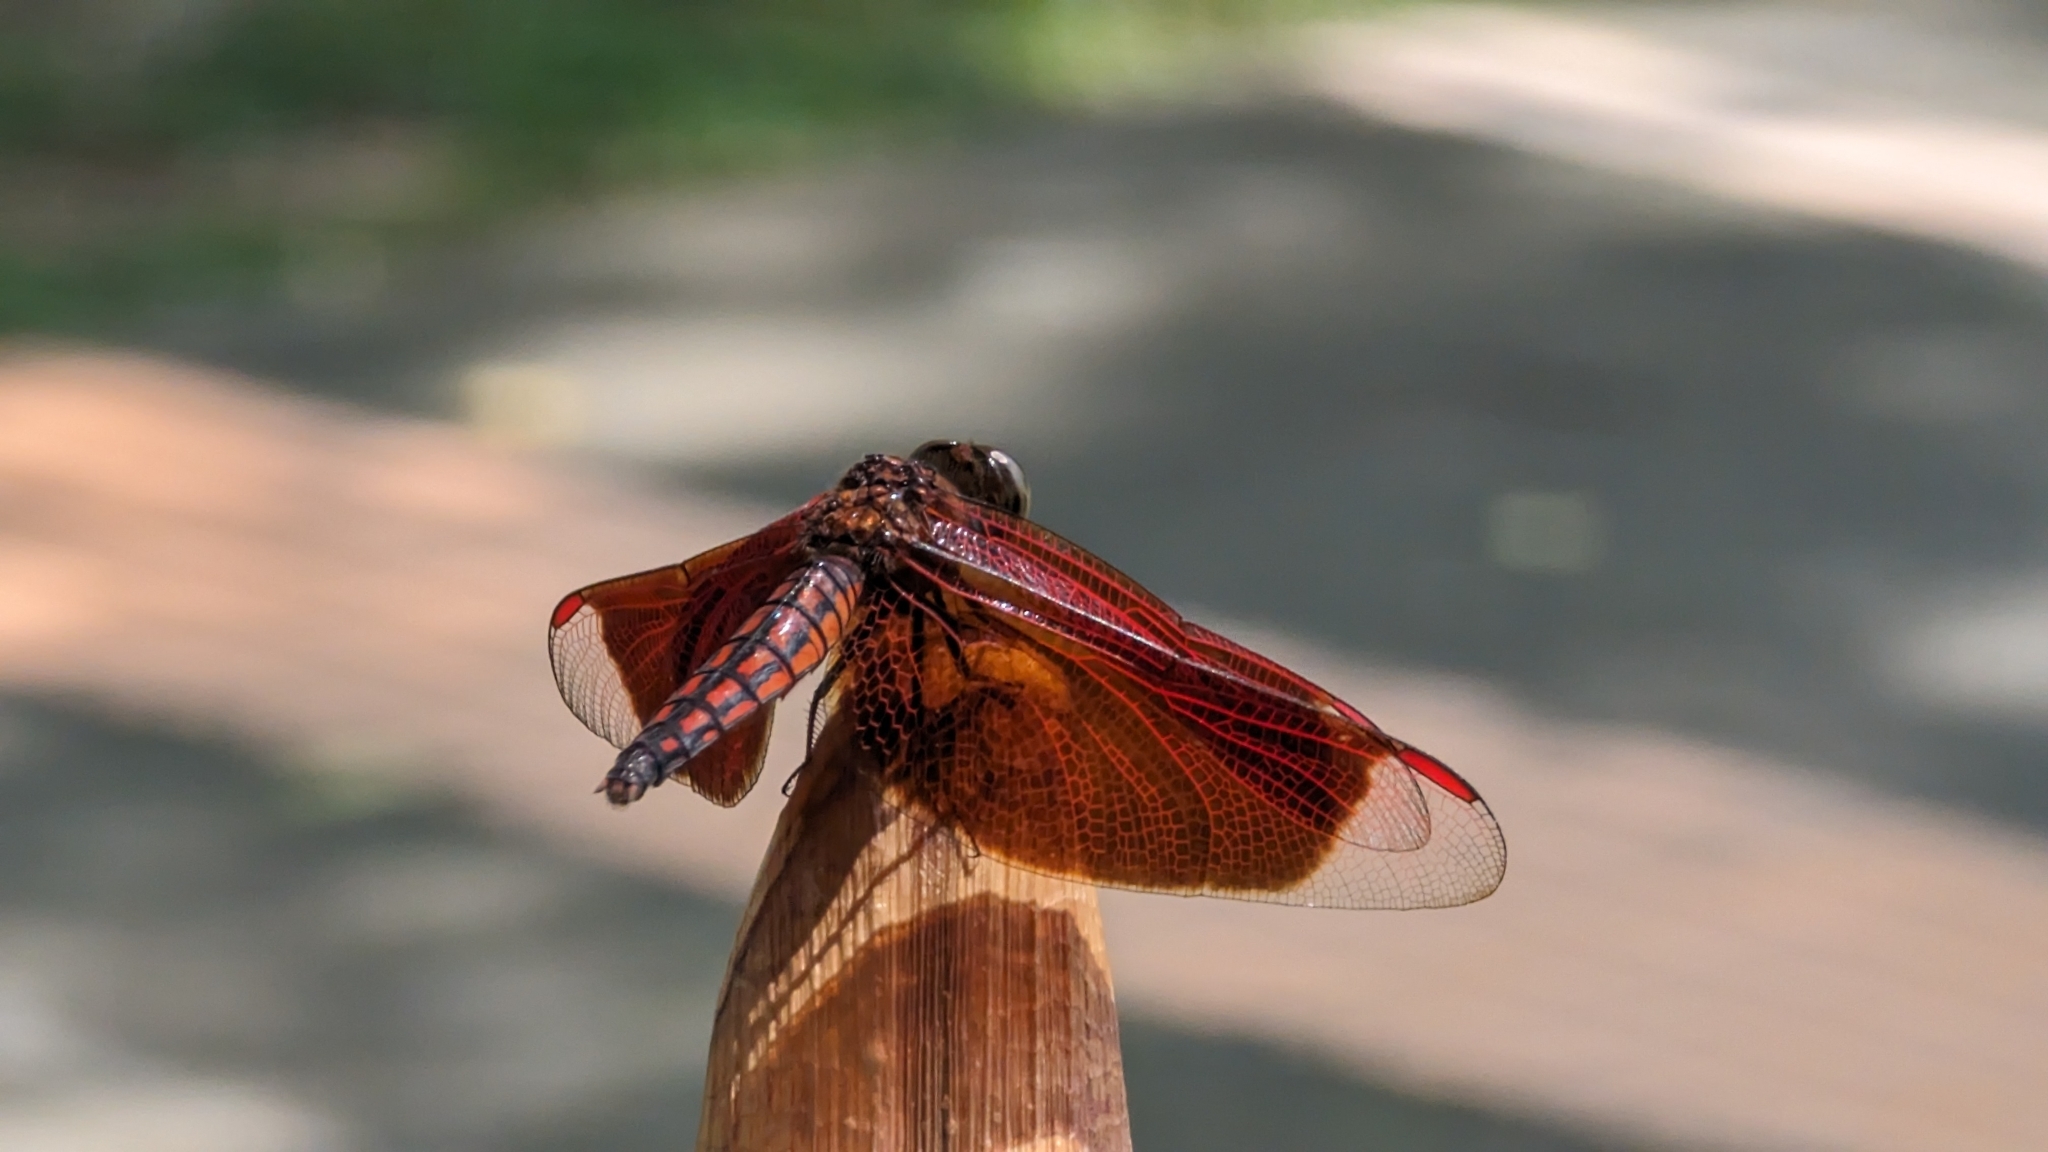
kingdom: Animalia
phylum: Arthropoda
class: Insecta
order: Odonata
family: Libellulidae
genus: Neurothemis
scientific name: Neurothemis taiwanensis
